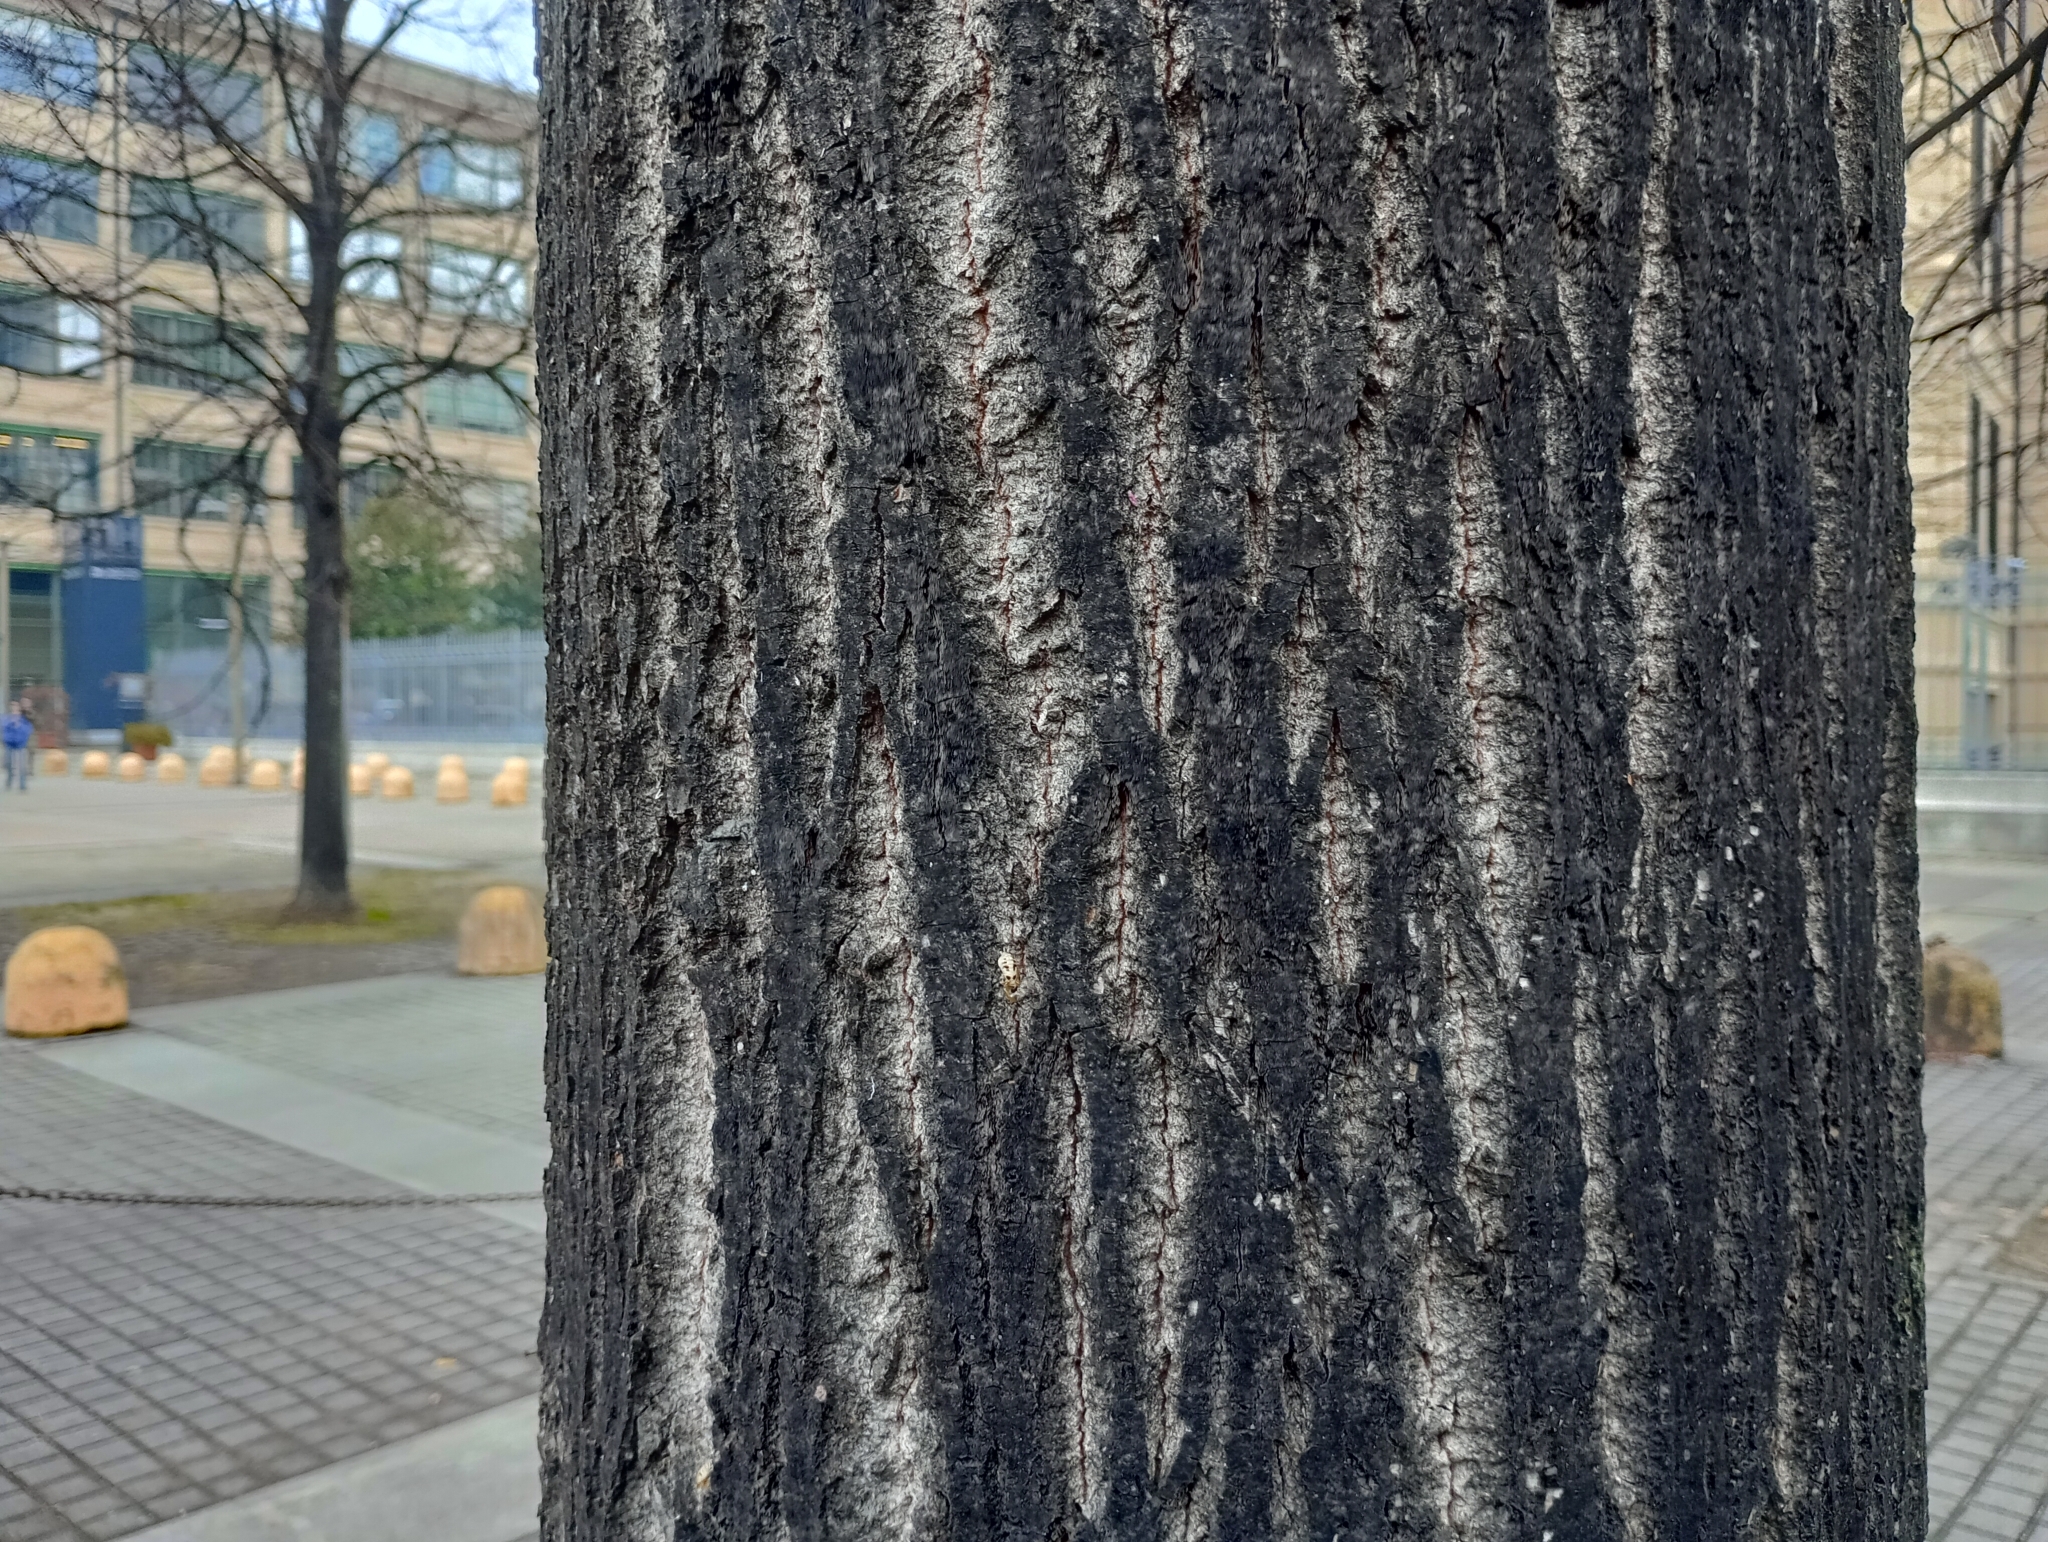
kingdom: Animalia
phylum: Arthropoda
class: Insecta
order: Coleoptera
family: Coccinellidae
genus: Harmonia
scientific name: Harmonia axyridis
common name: Harlequin ladybird
